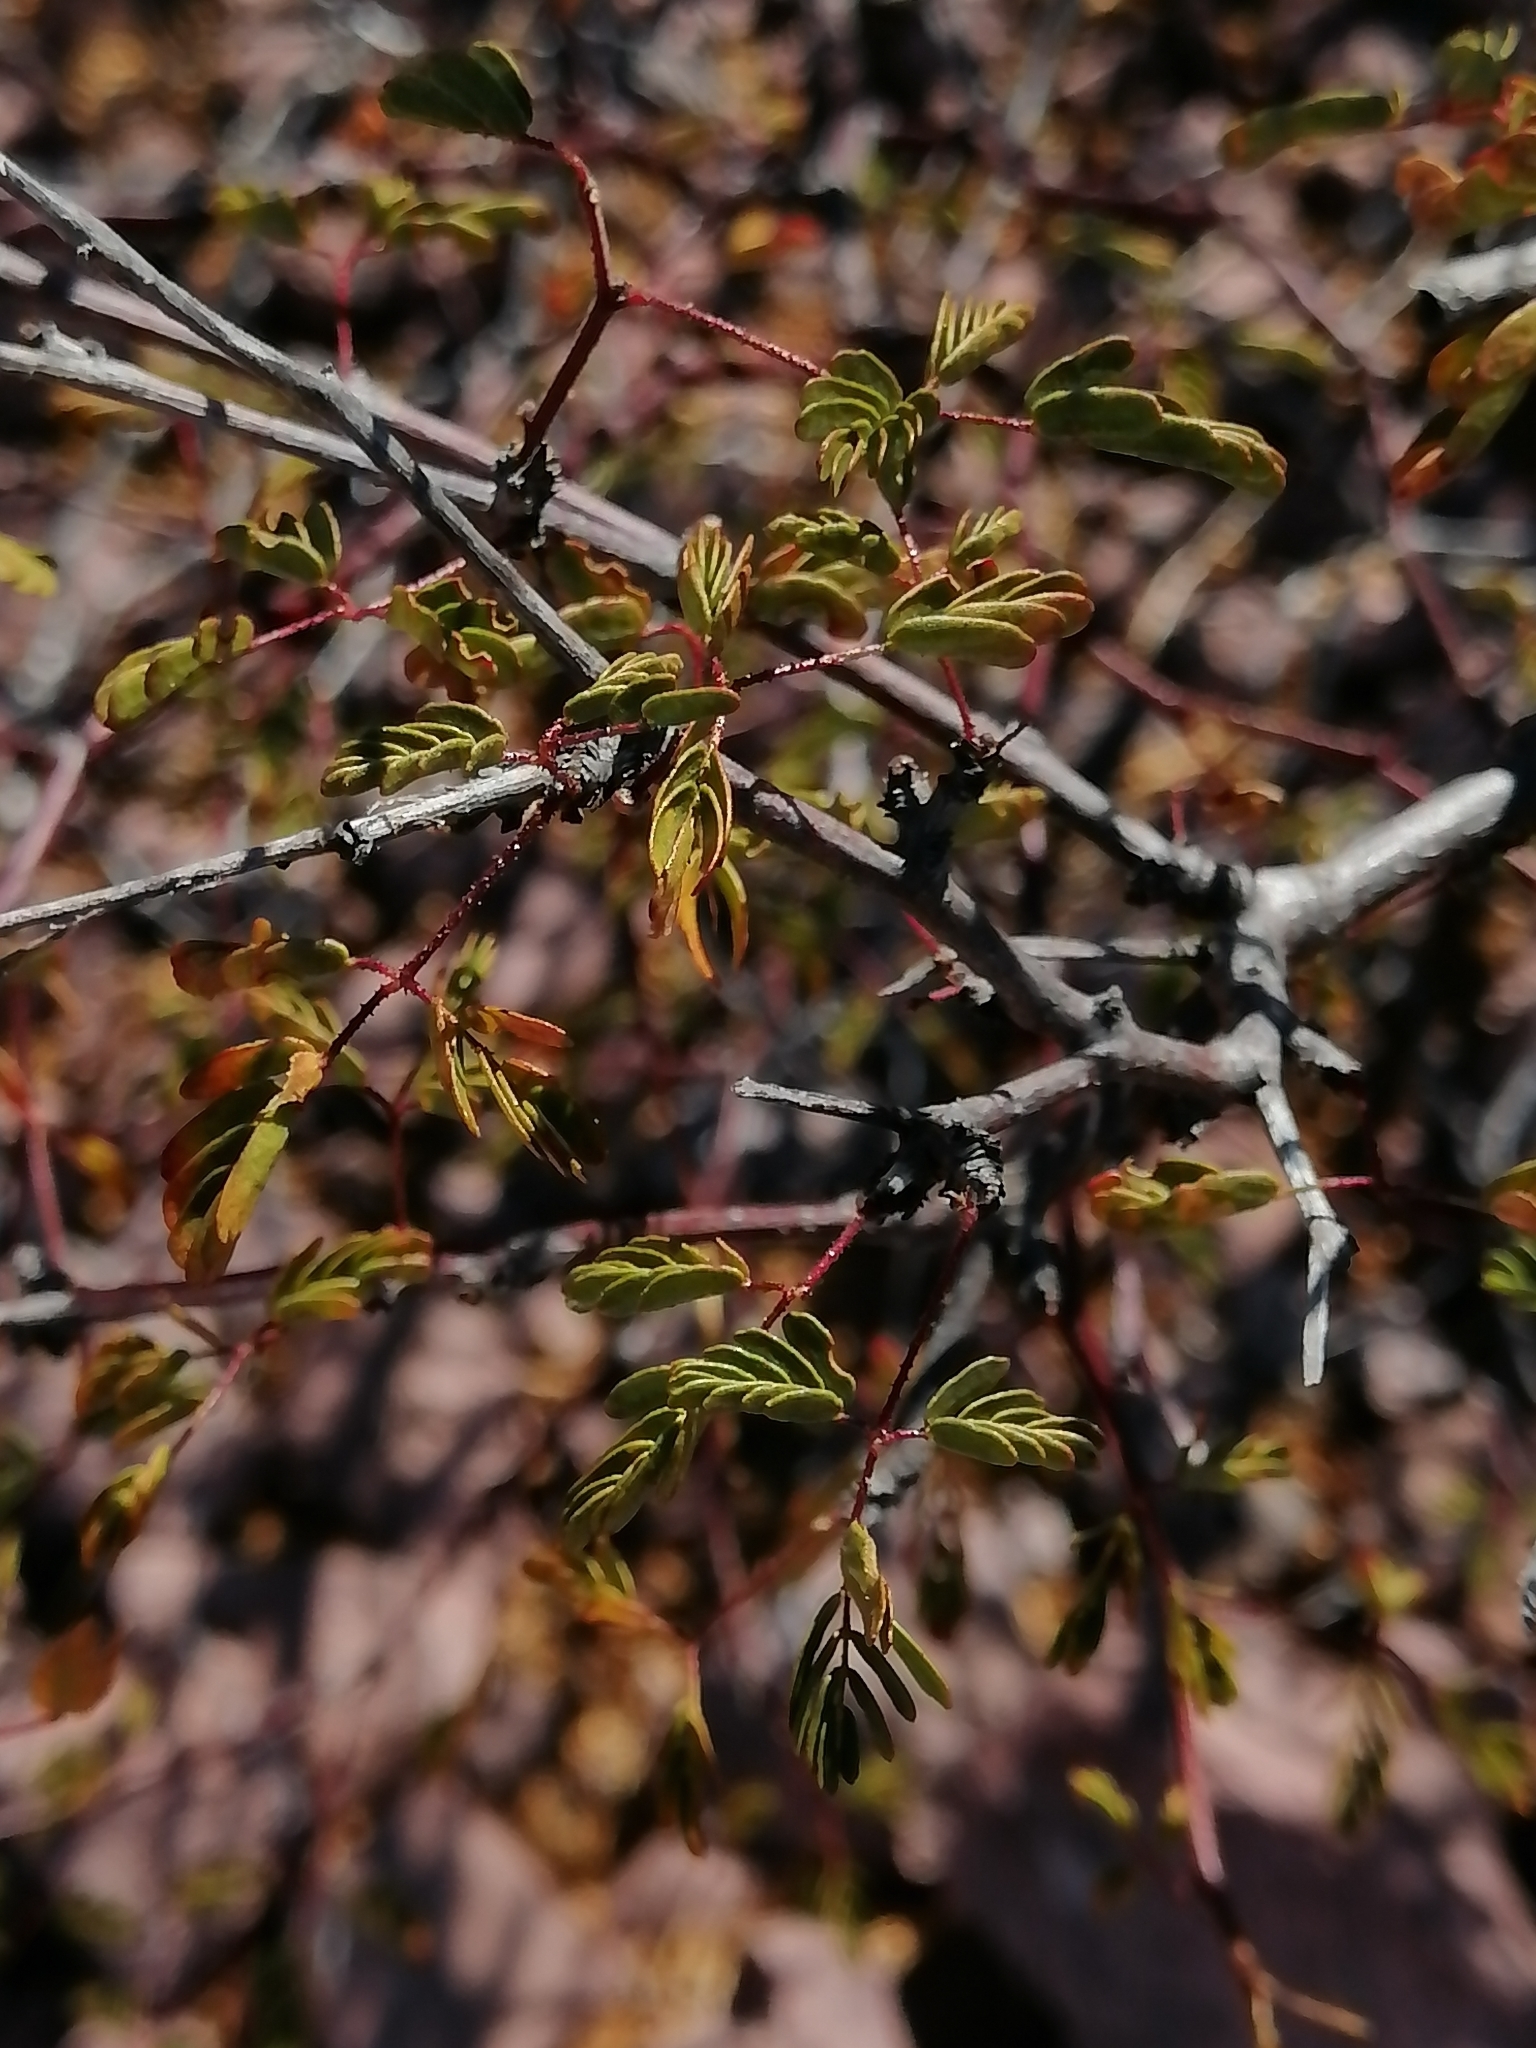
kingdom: Plantae
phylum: Tracheophyta
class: Magnoliopsida
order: Fabales
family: Fabaceae
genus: Erythrostemon
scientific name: Erythrostemon placidus
